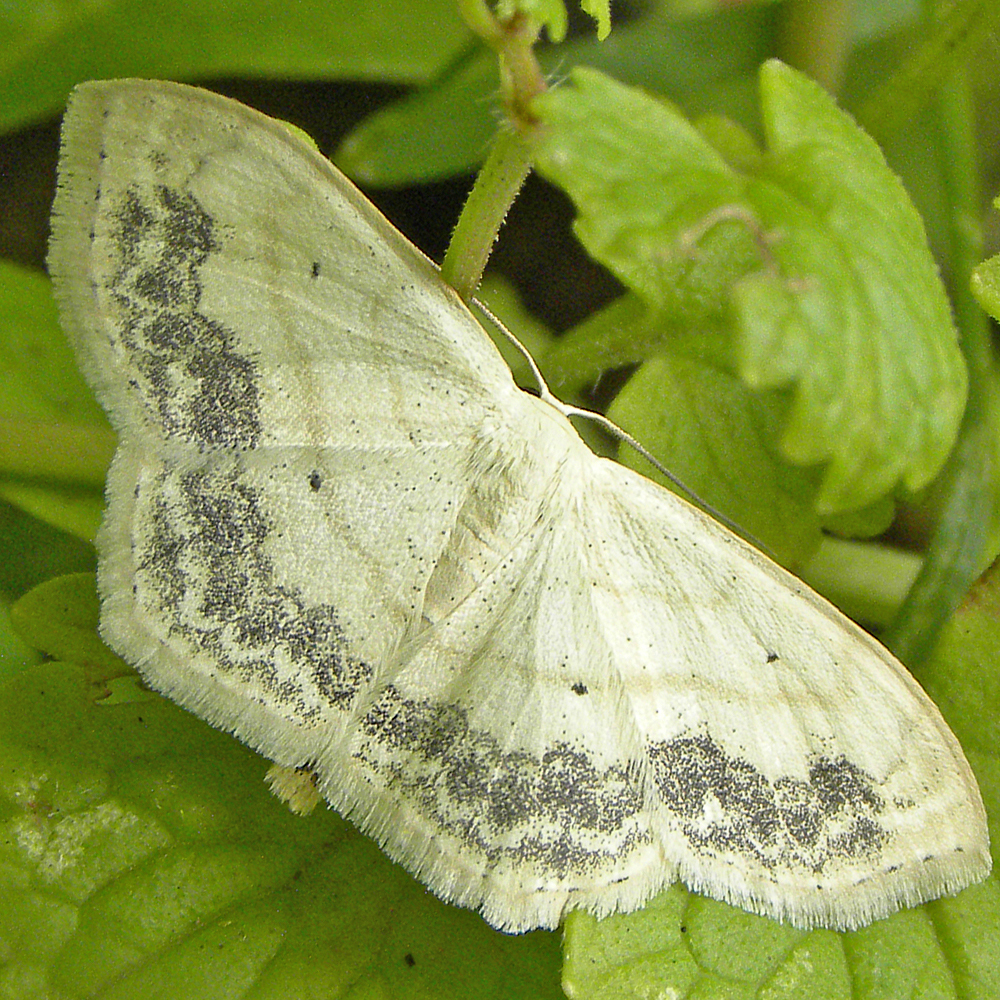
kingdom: Animalia
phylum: Arthropoda
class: Insecta
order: Lepidoptera
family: Geometridae
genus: Scopula
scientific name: Scopula limboundata
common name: Large lace border
